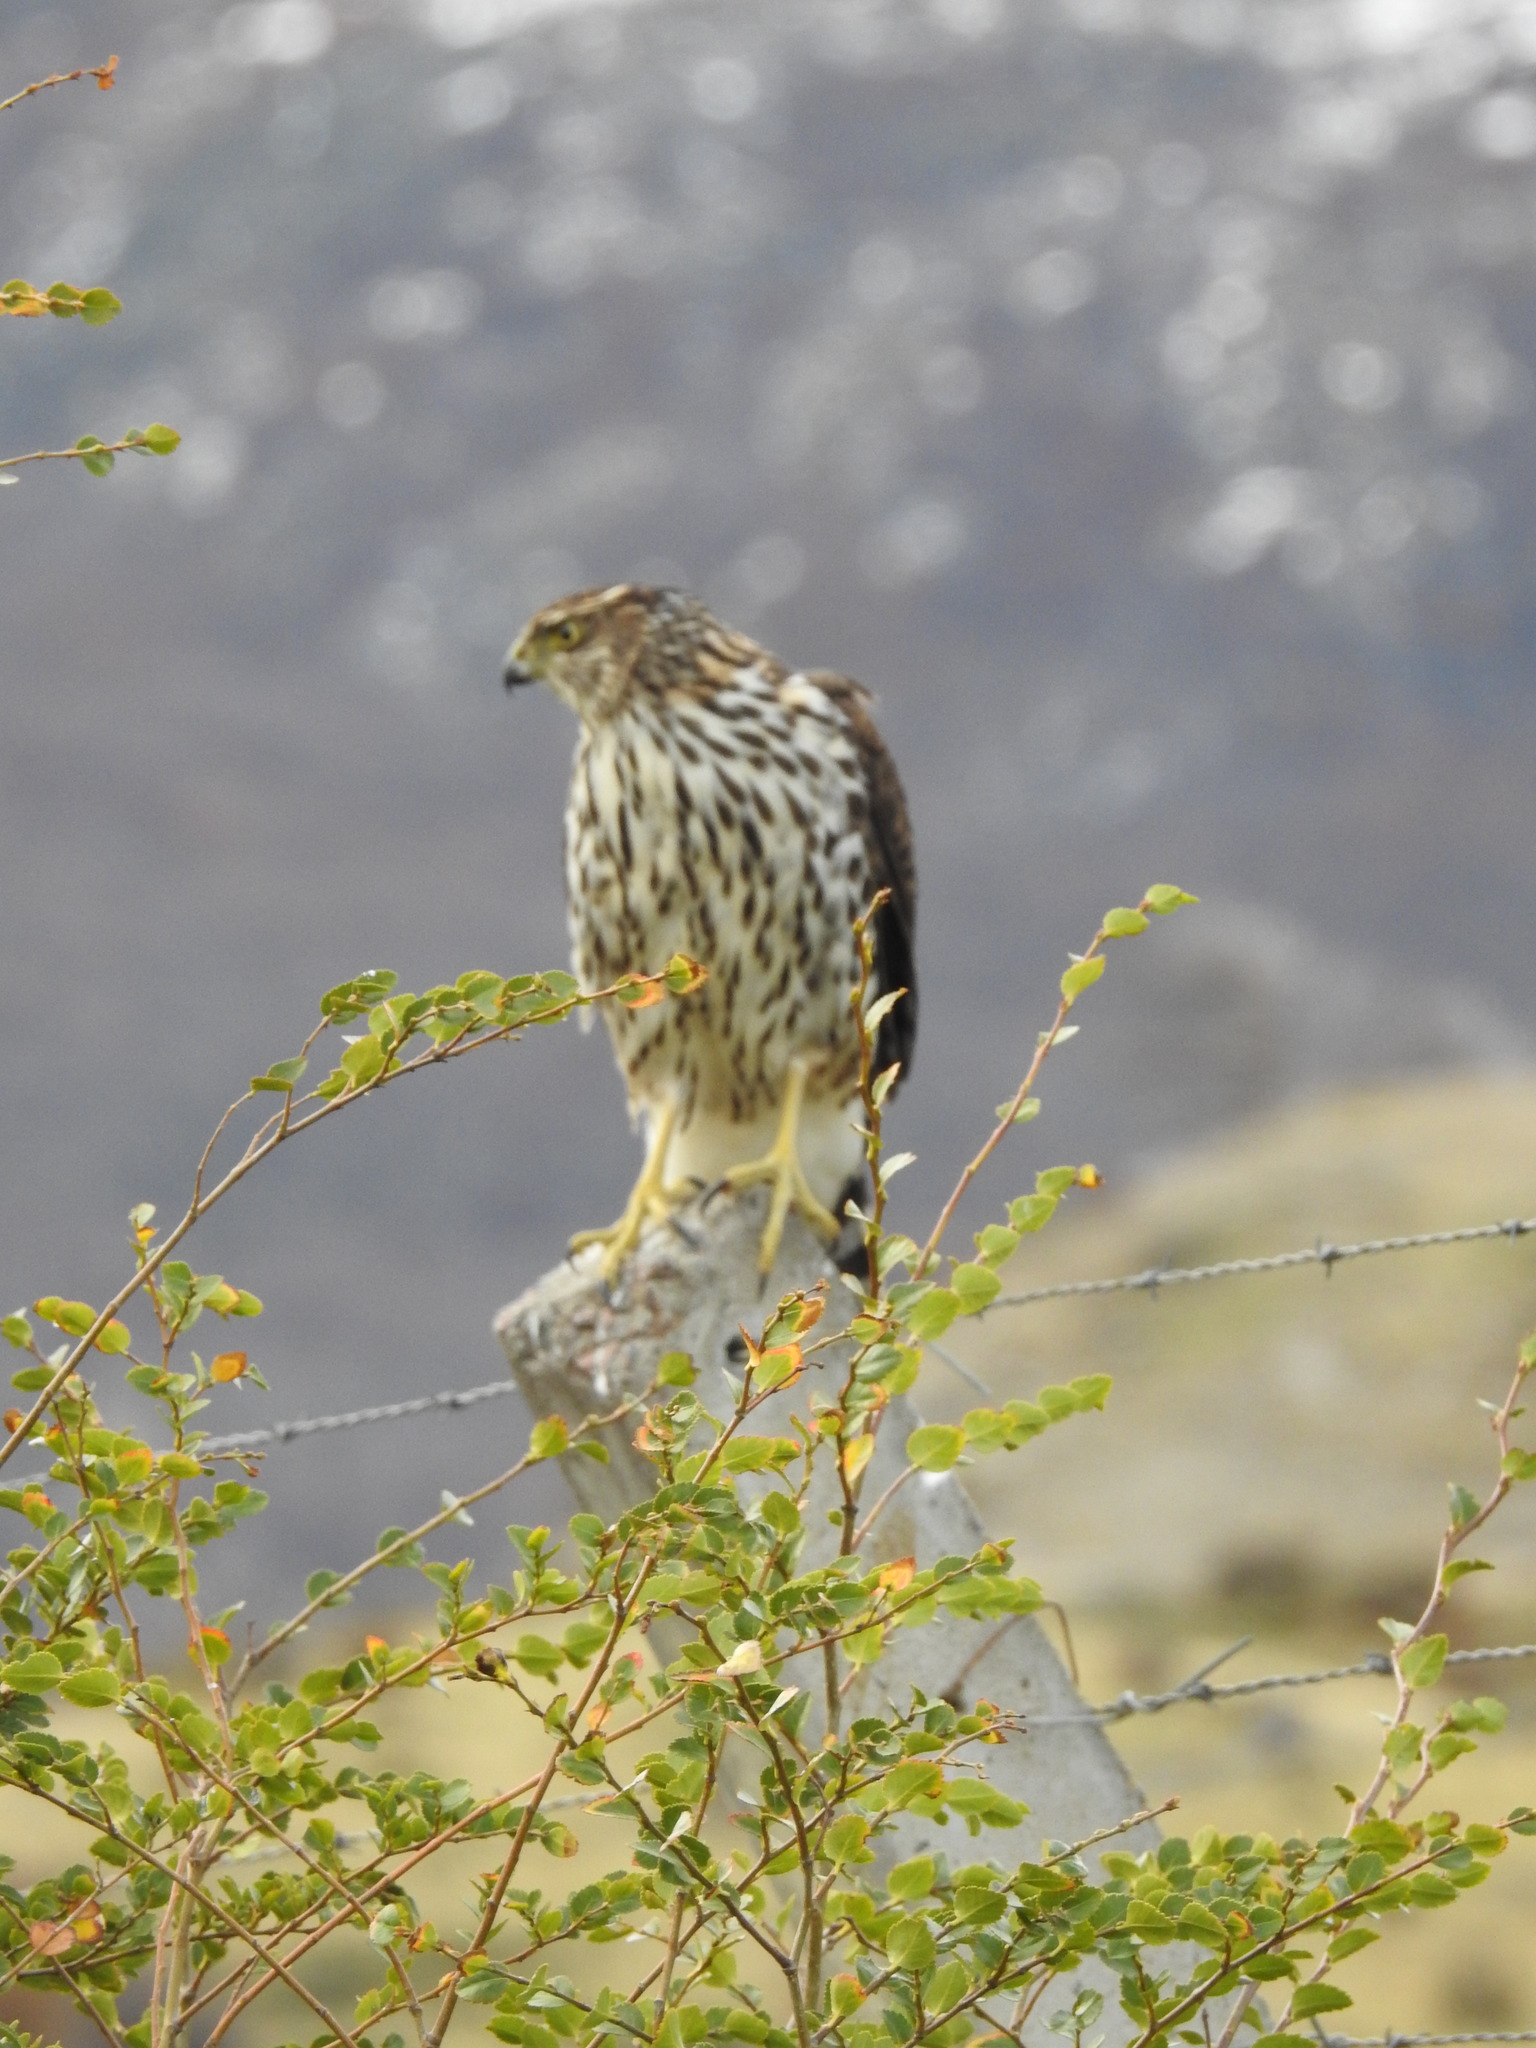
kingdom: Animalia
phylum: Chordata
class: Aves
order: Accipitriformes
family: Accipitridae
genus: Accipiter
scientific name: Accipiter chilensis
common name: Chilean hawk
